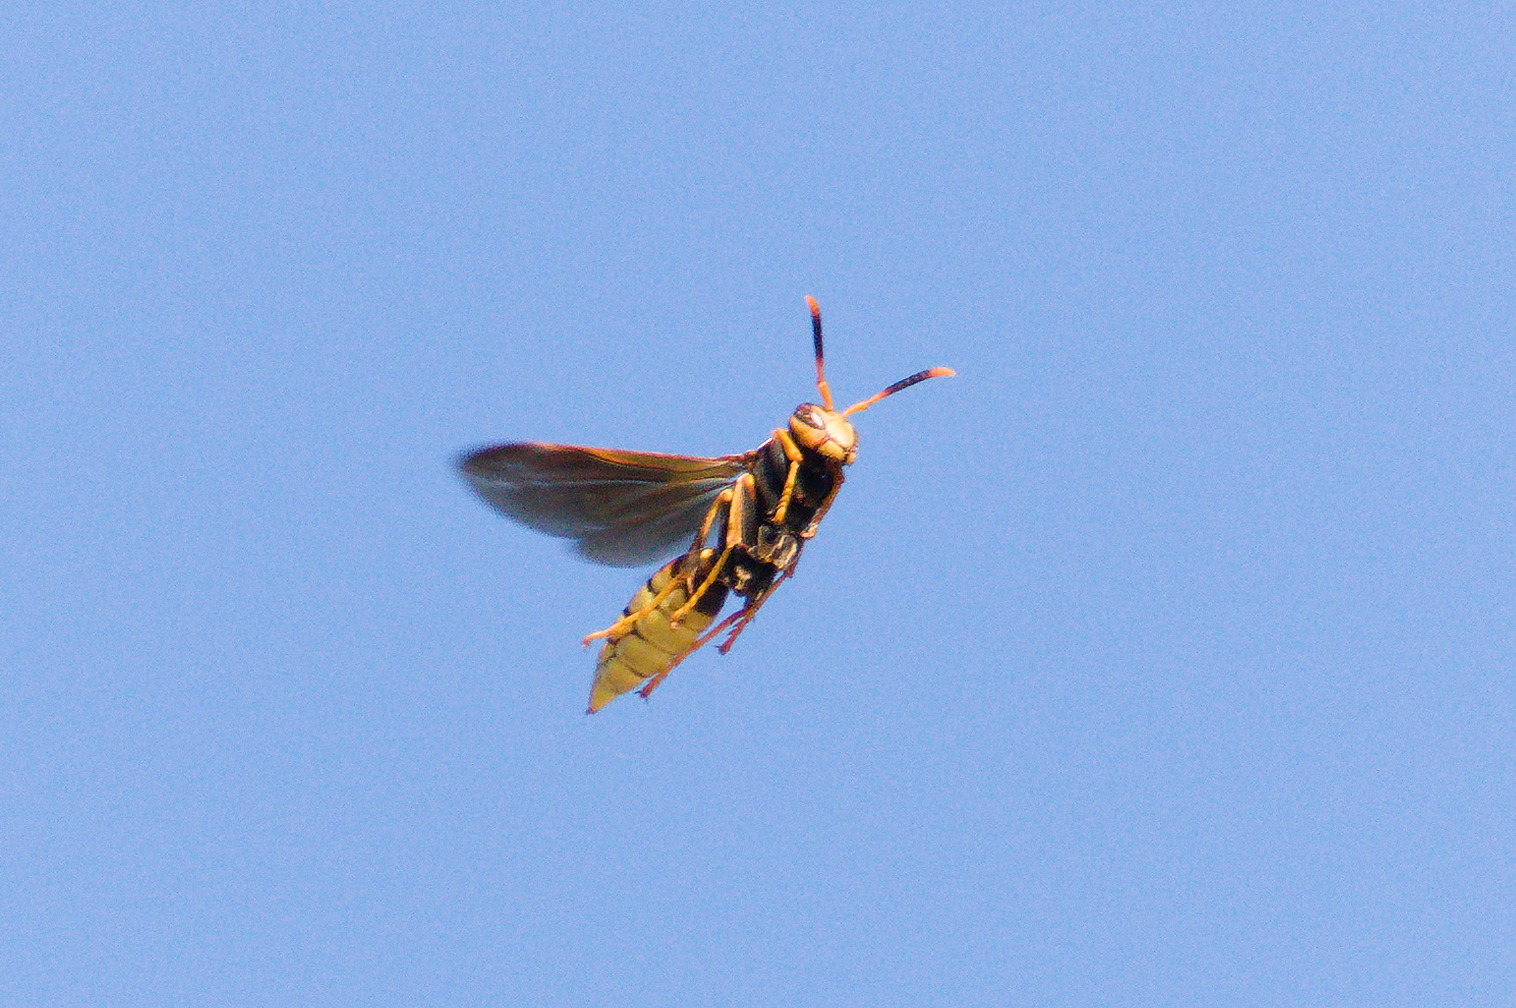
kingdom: Animalia
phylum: Arthropoda
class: Insecta
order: Hymenoptera
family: Eumenidae
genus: Polistes
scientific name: Polistes comanchus
